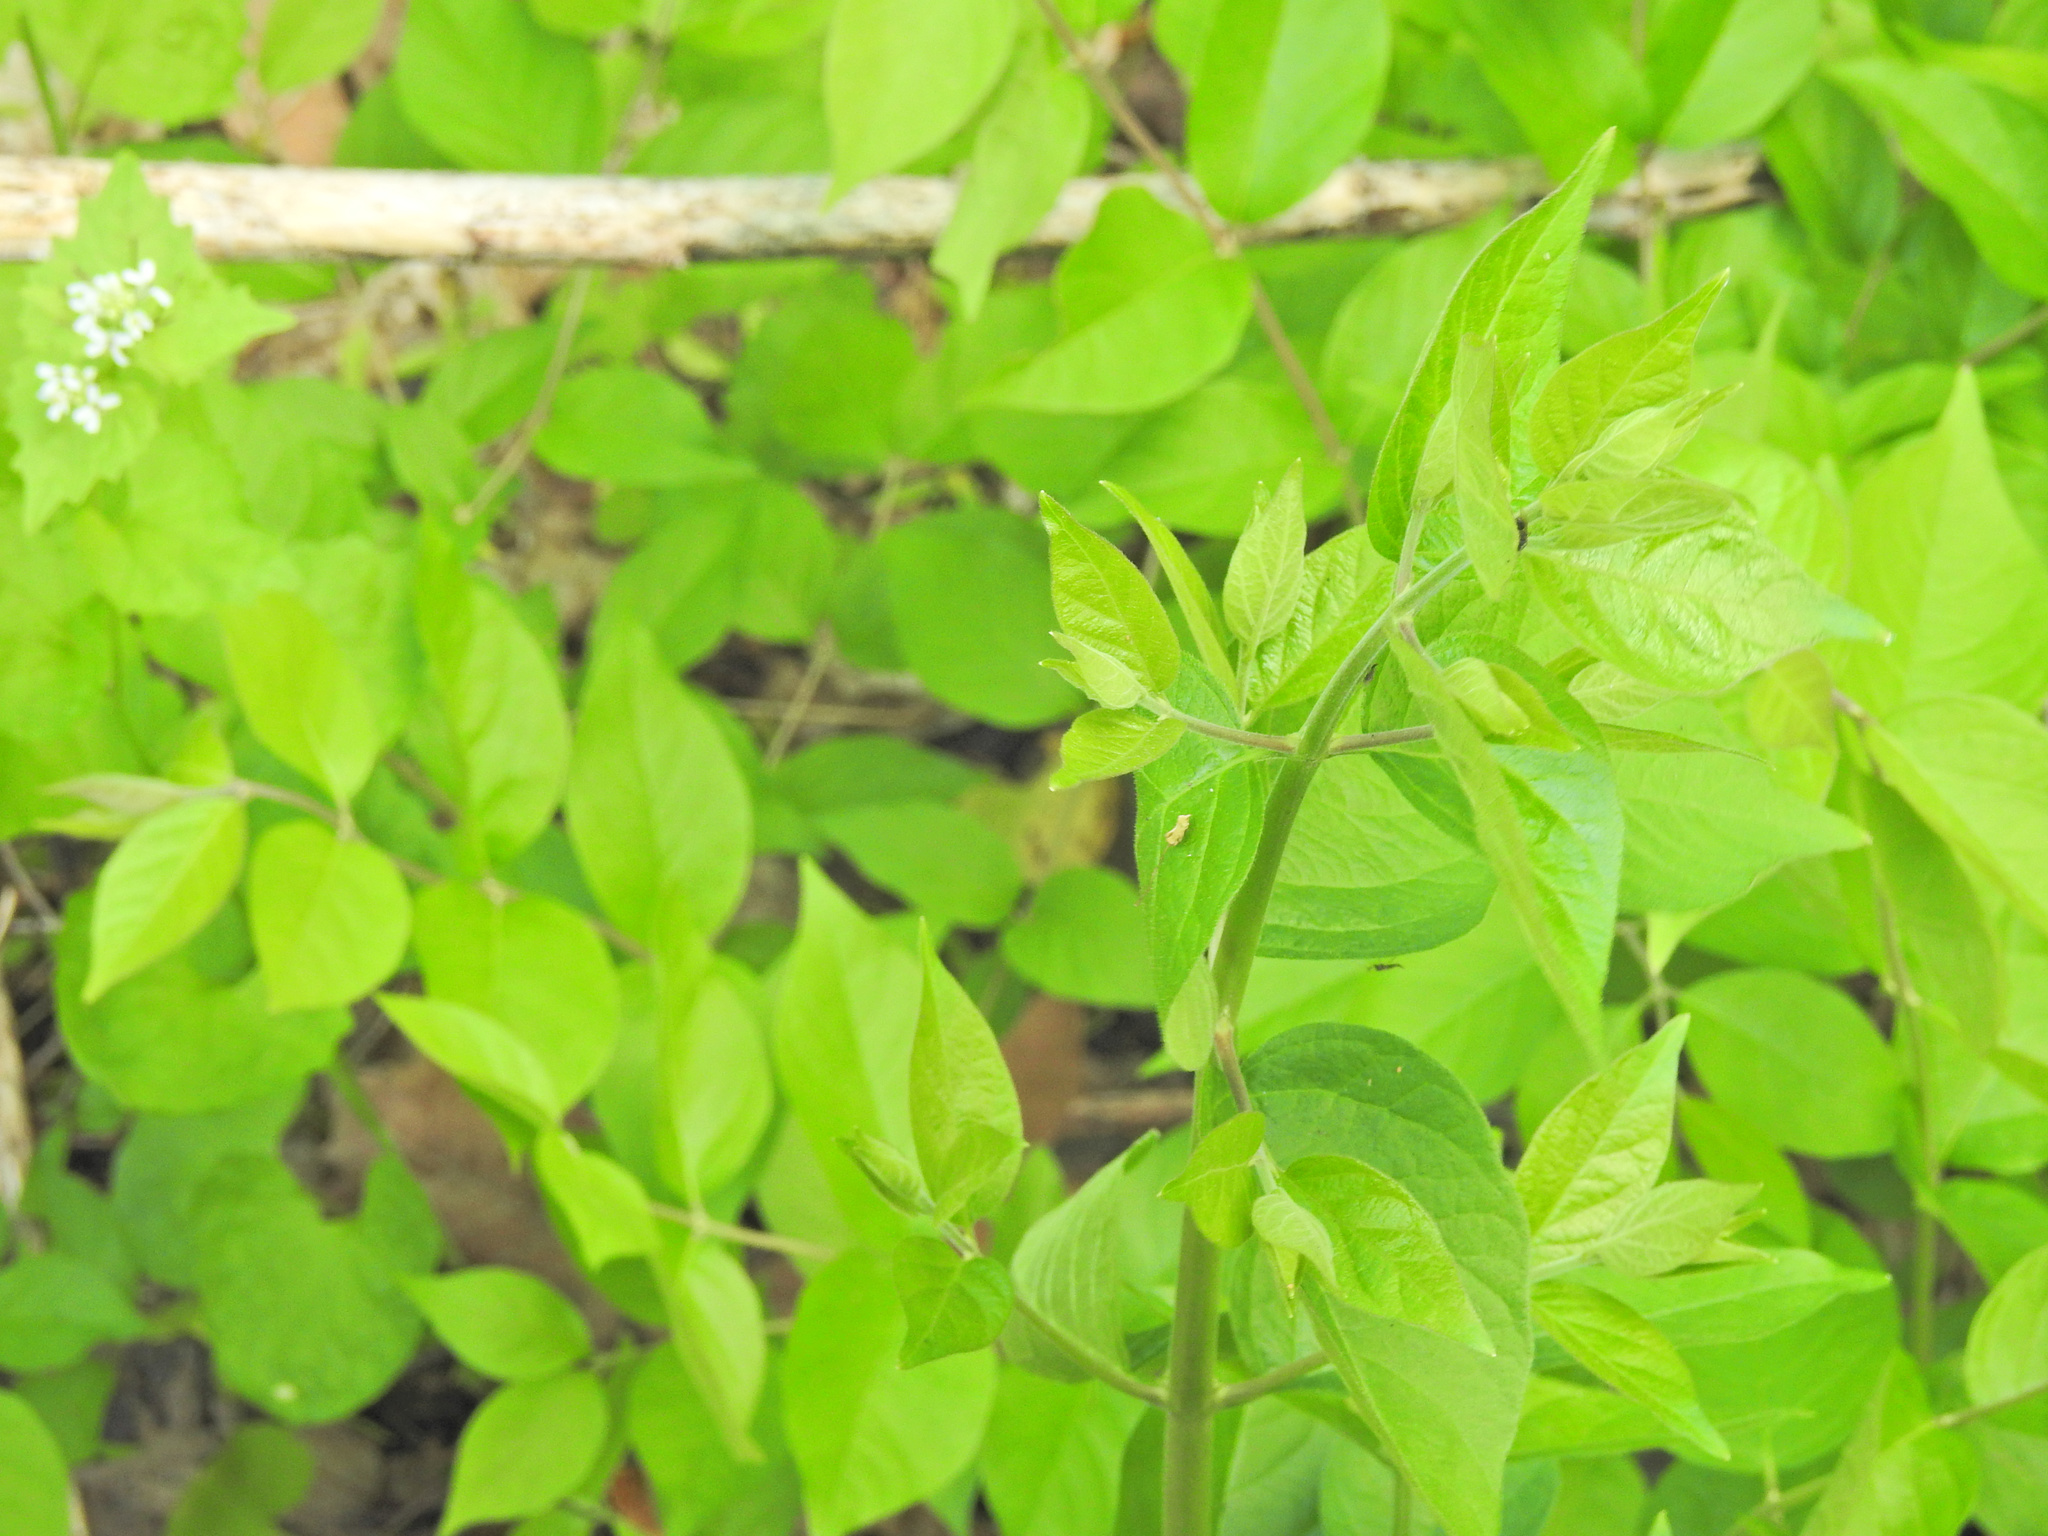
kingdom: Plantae
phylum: Tracheophyta
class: Magnoliopsida
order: Dipsacales
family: Caprifoliaceae
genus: Lonicera
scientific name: Lonicera maackii
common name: Amur honeysuckle
